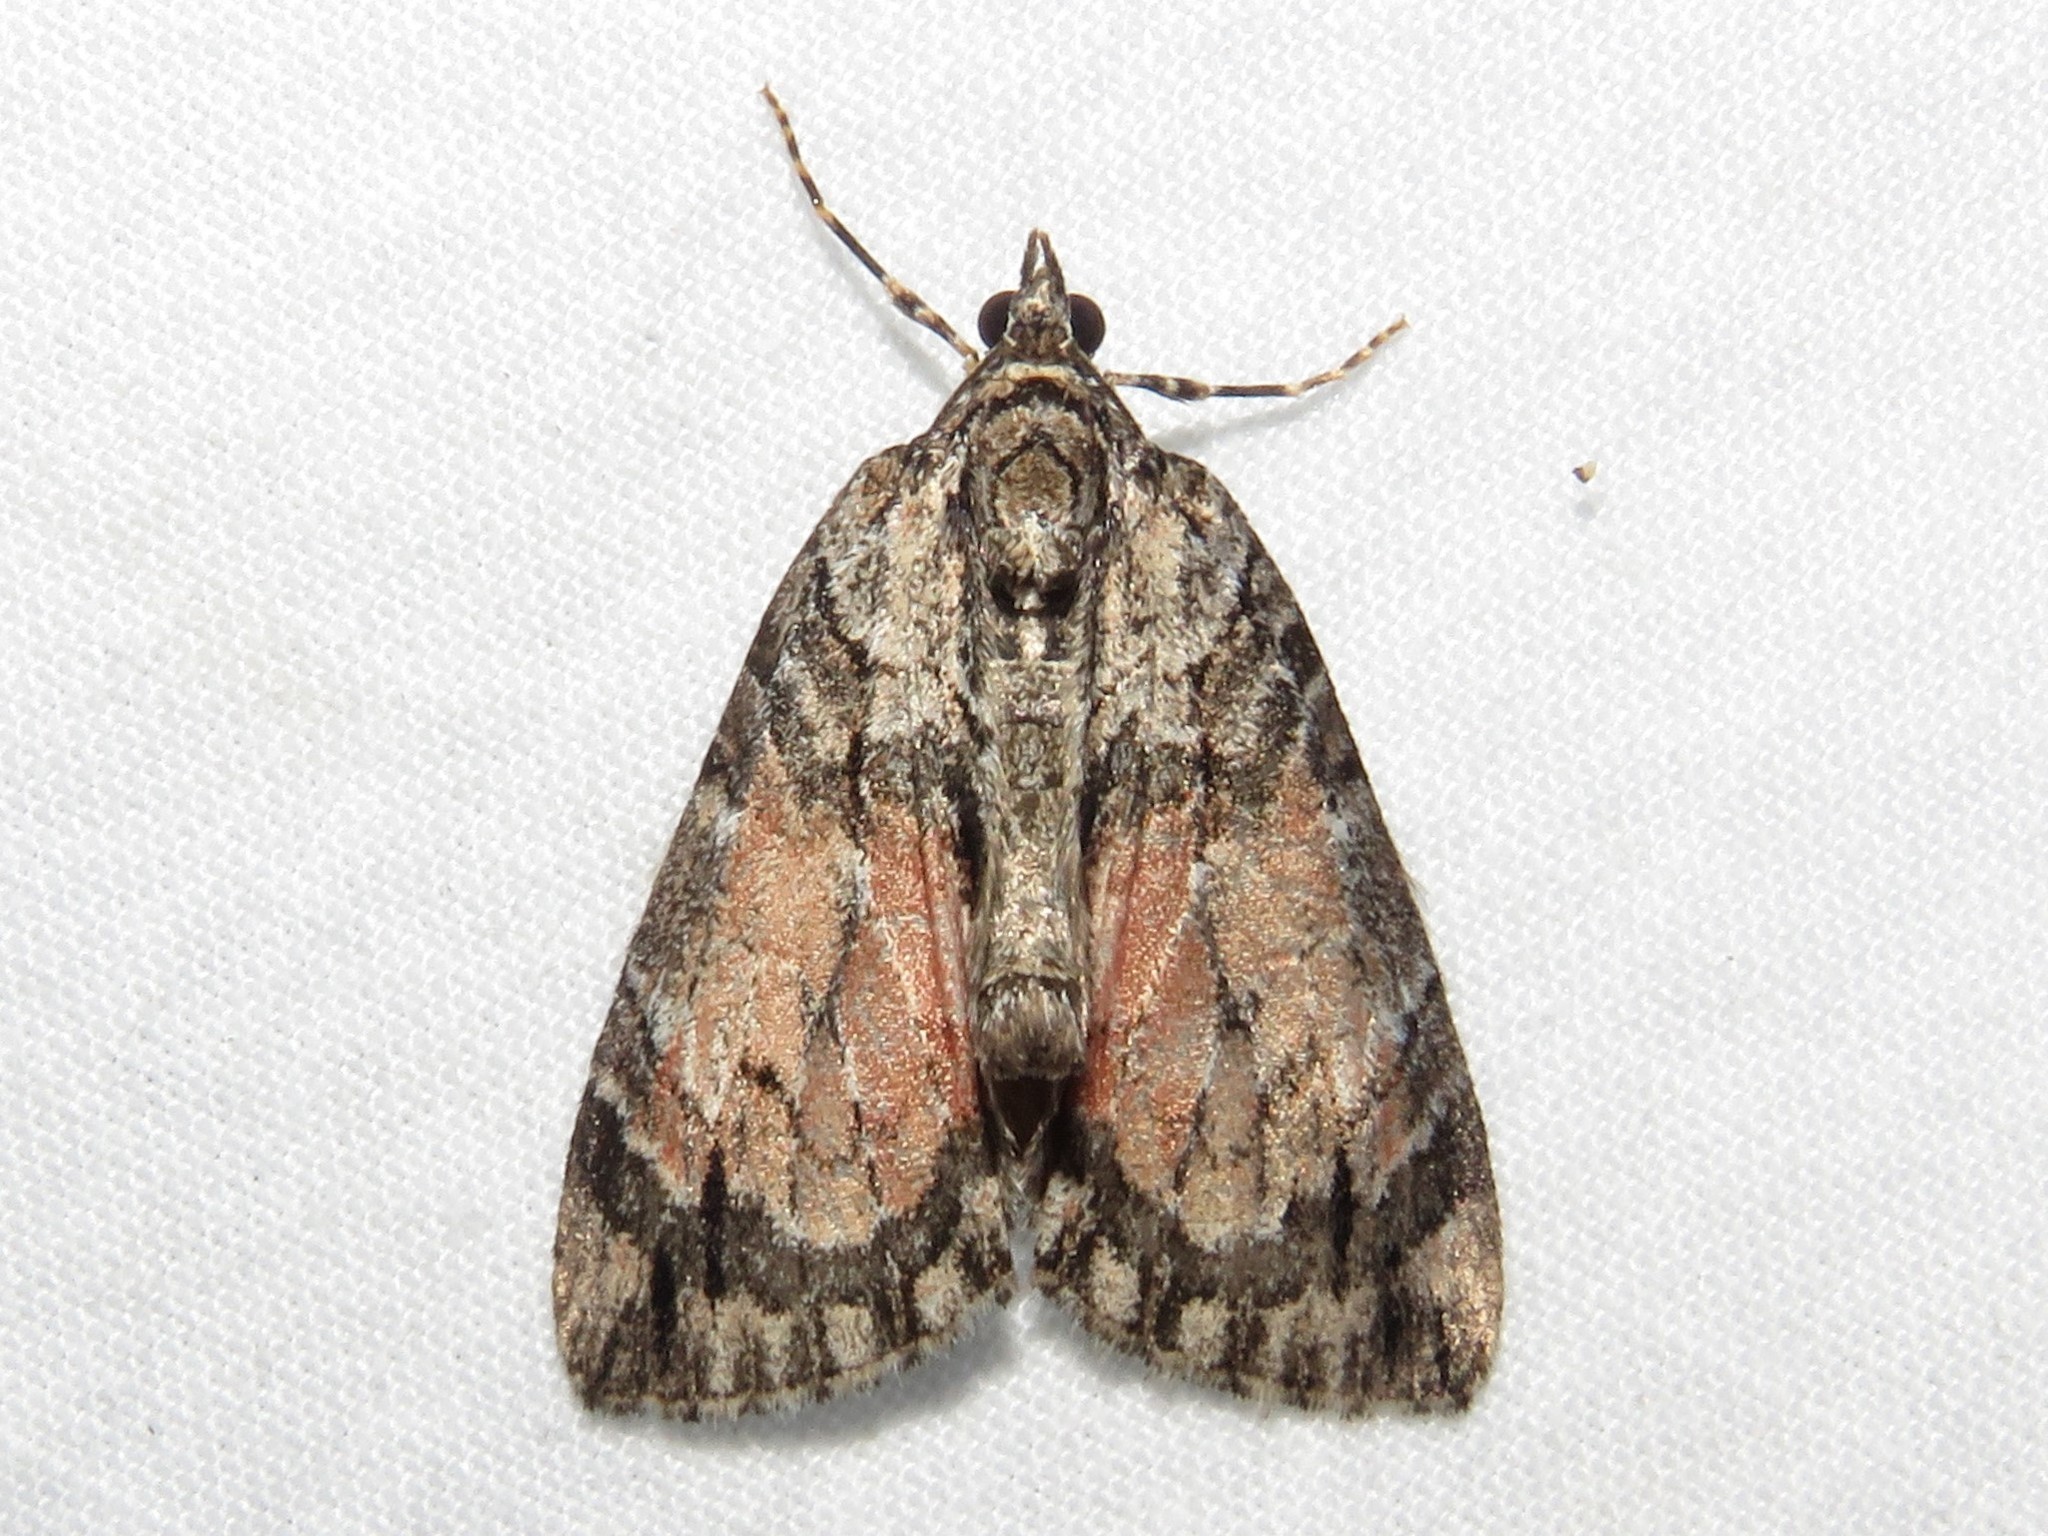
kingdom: Animalia
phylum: Arthropoda
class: Insecta
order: Lepidoptera
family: Geometridae
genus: Hydriomena
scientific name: Hydriomena perfracta
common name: Shattered hydriomena moth
